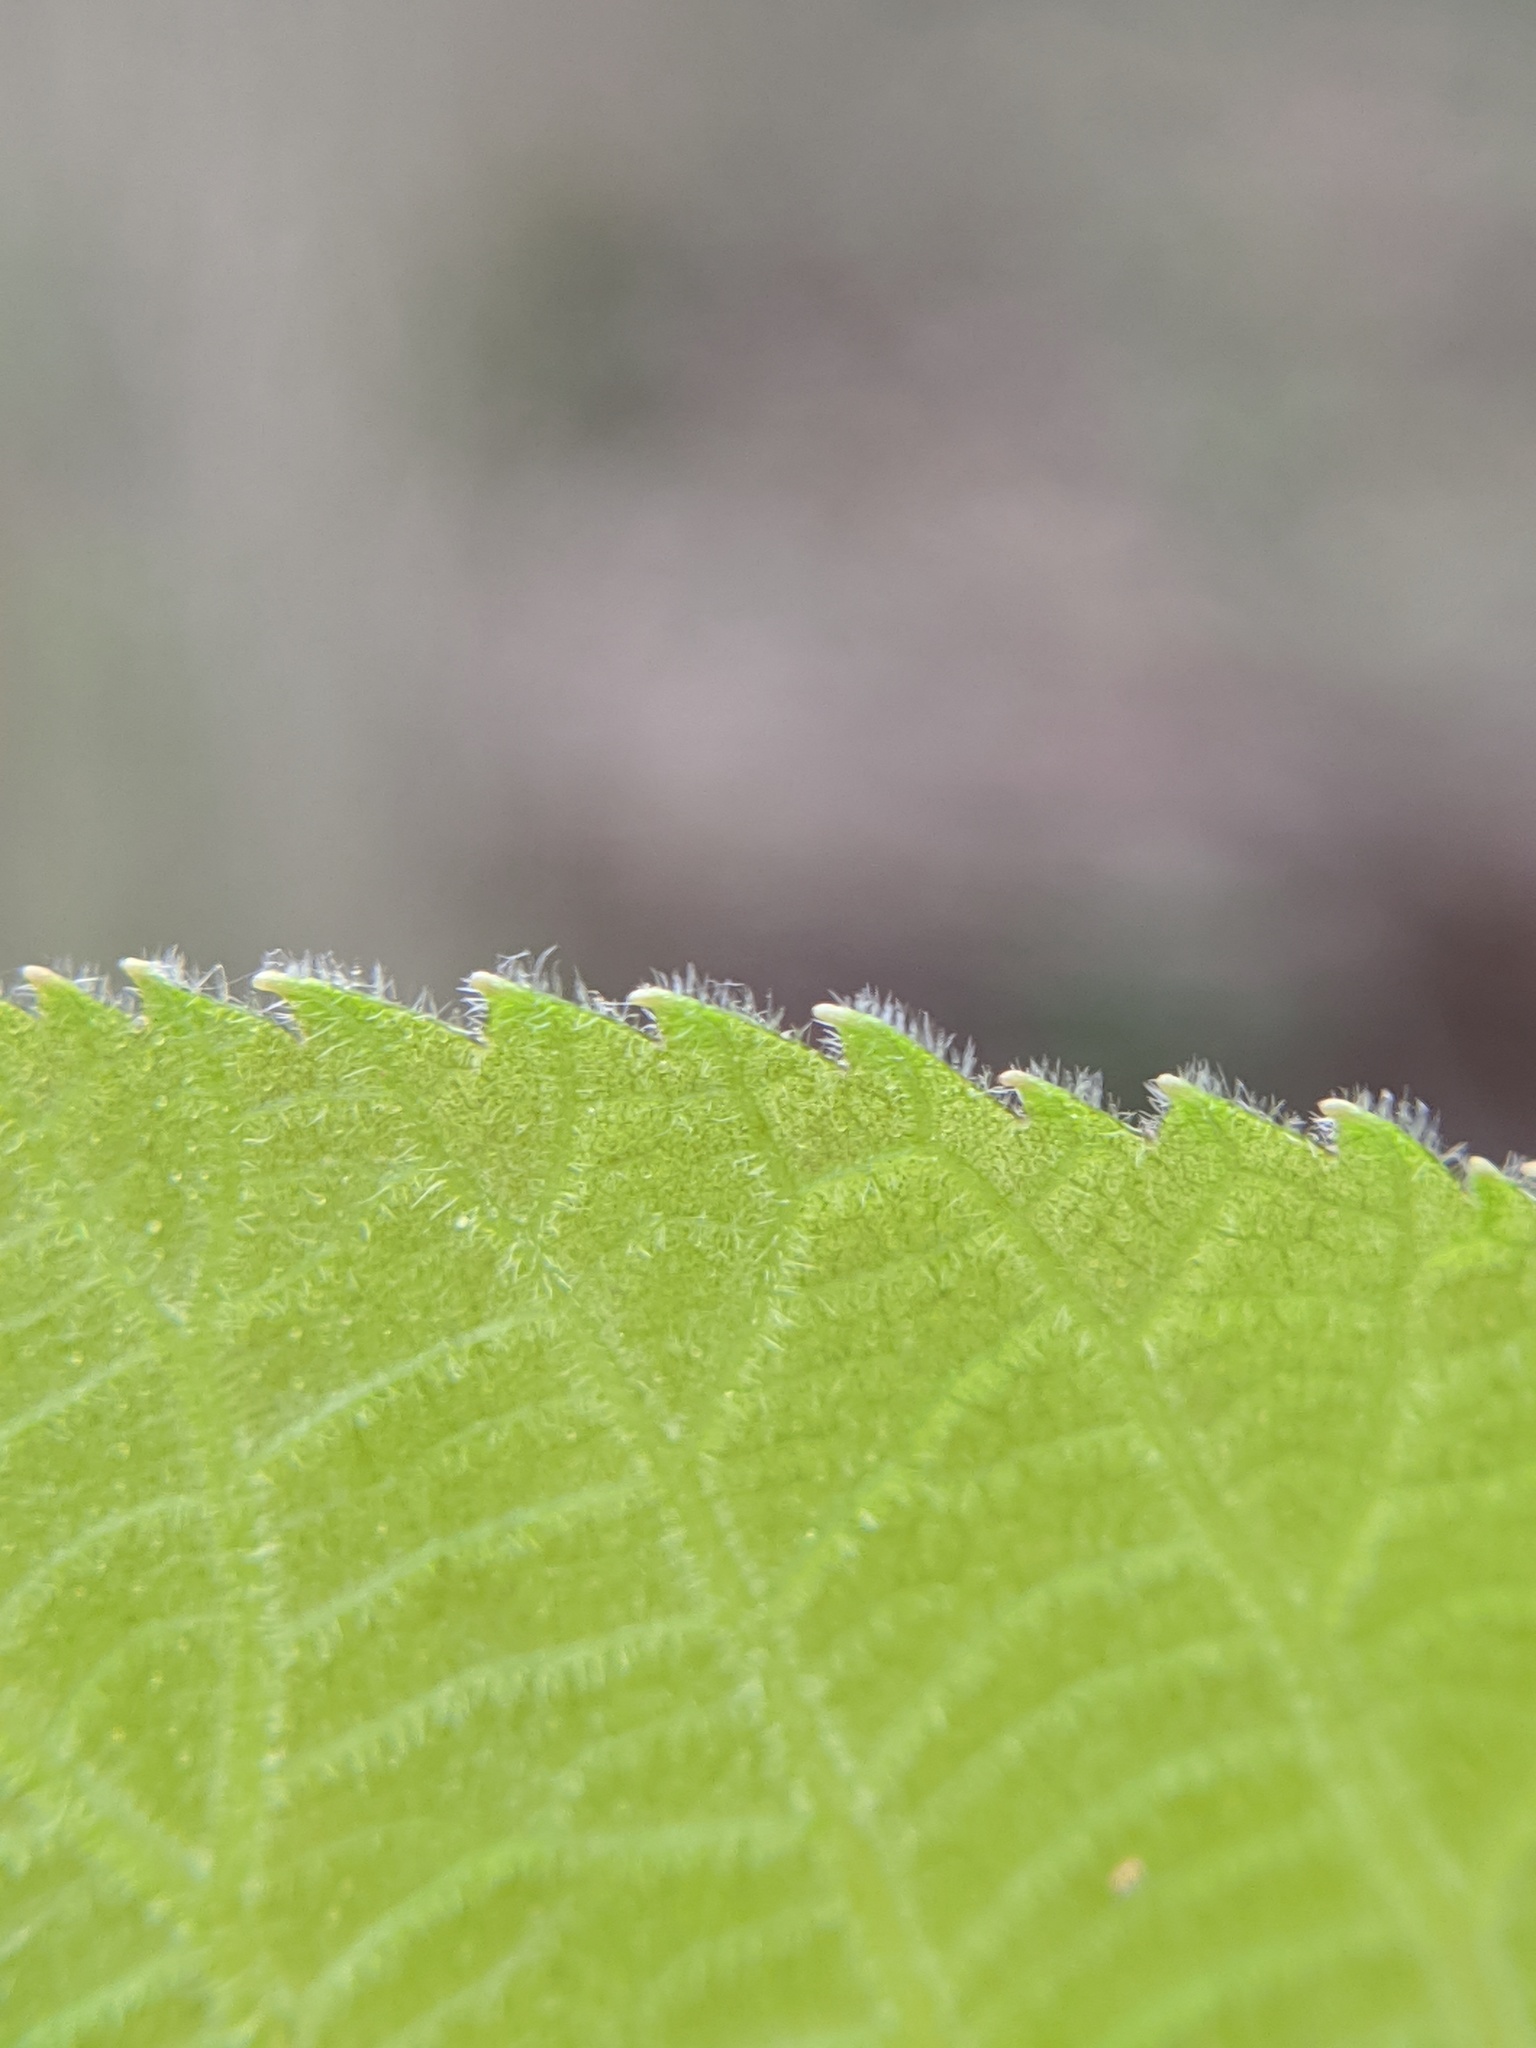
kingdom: Plantae
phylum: Tracheophyta
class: Magnoliopsida
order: Fagales
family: Juglandaceae
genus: Carya
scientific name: Carya ovata
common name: Shagbark hickory
